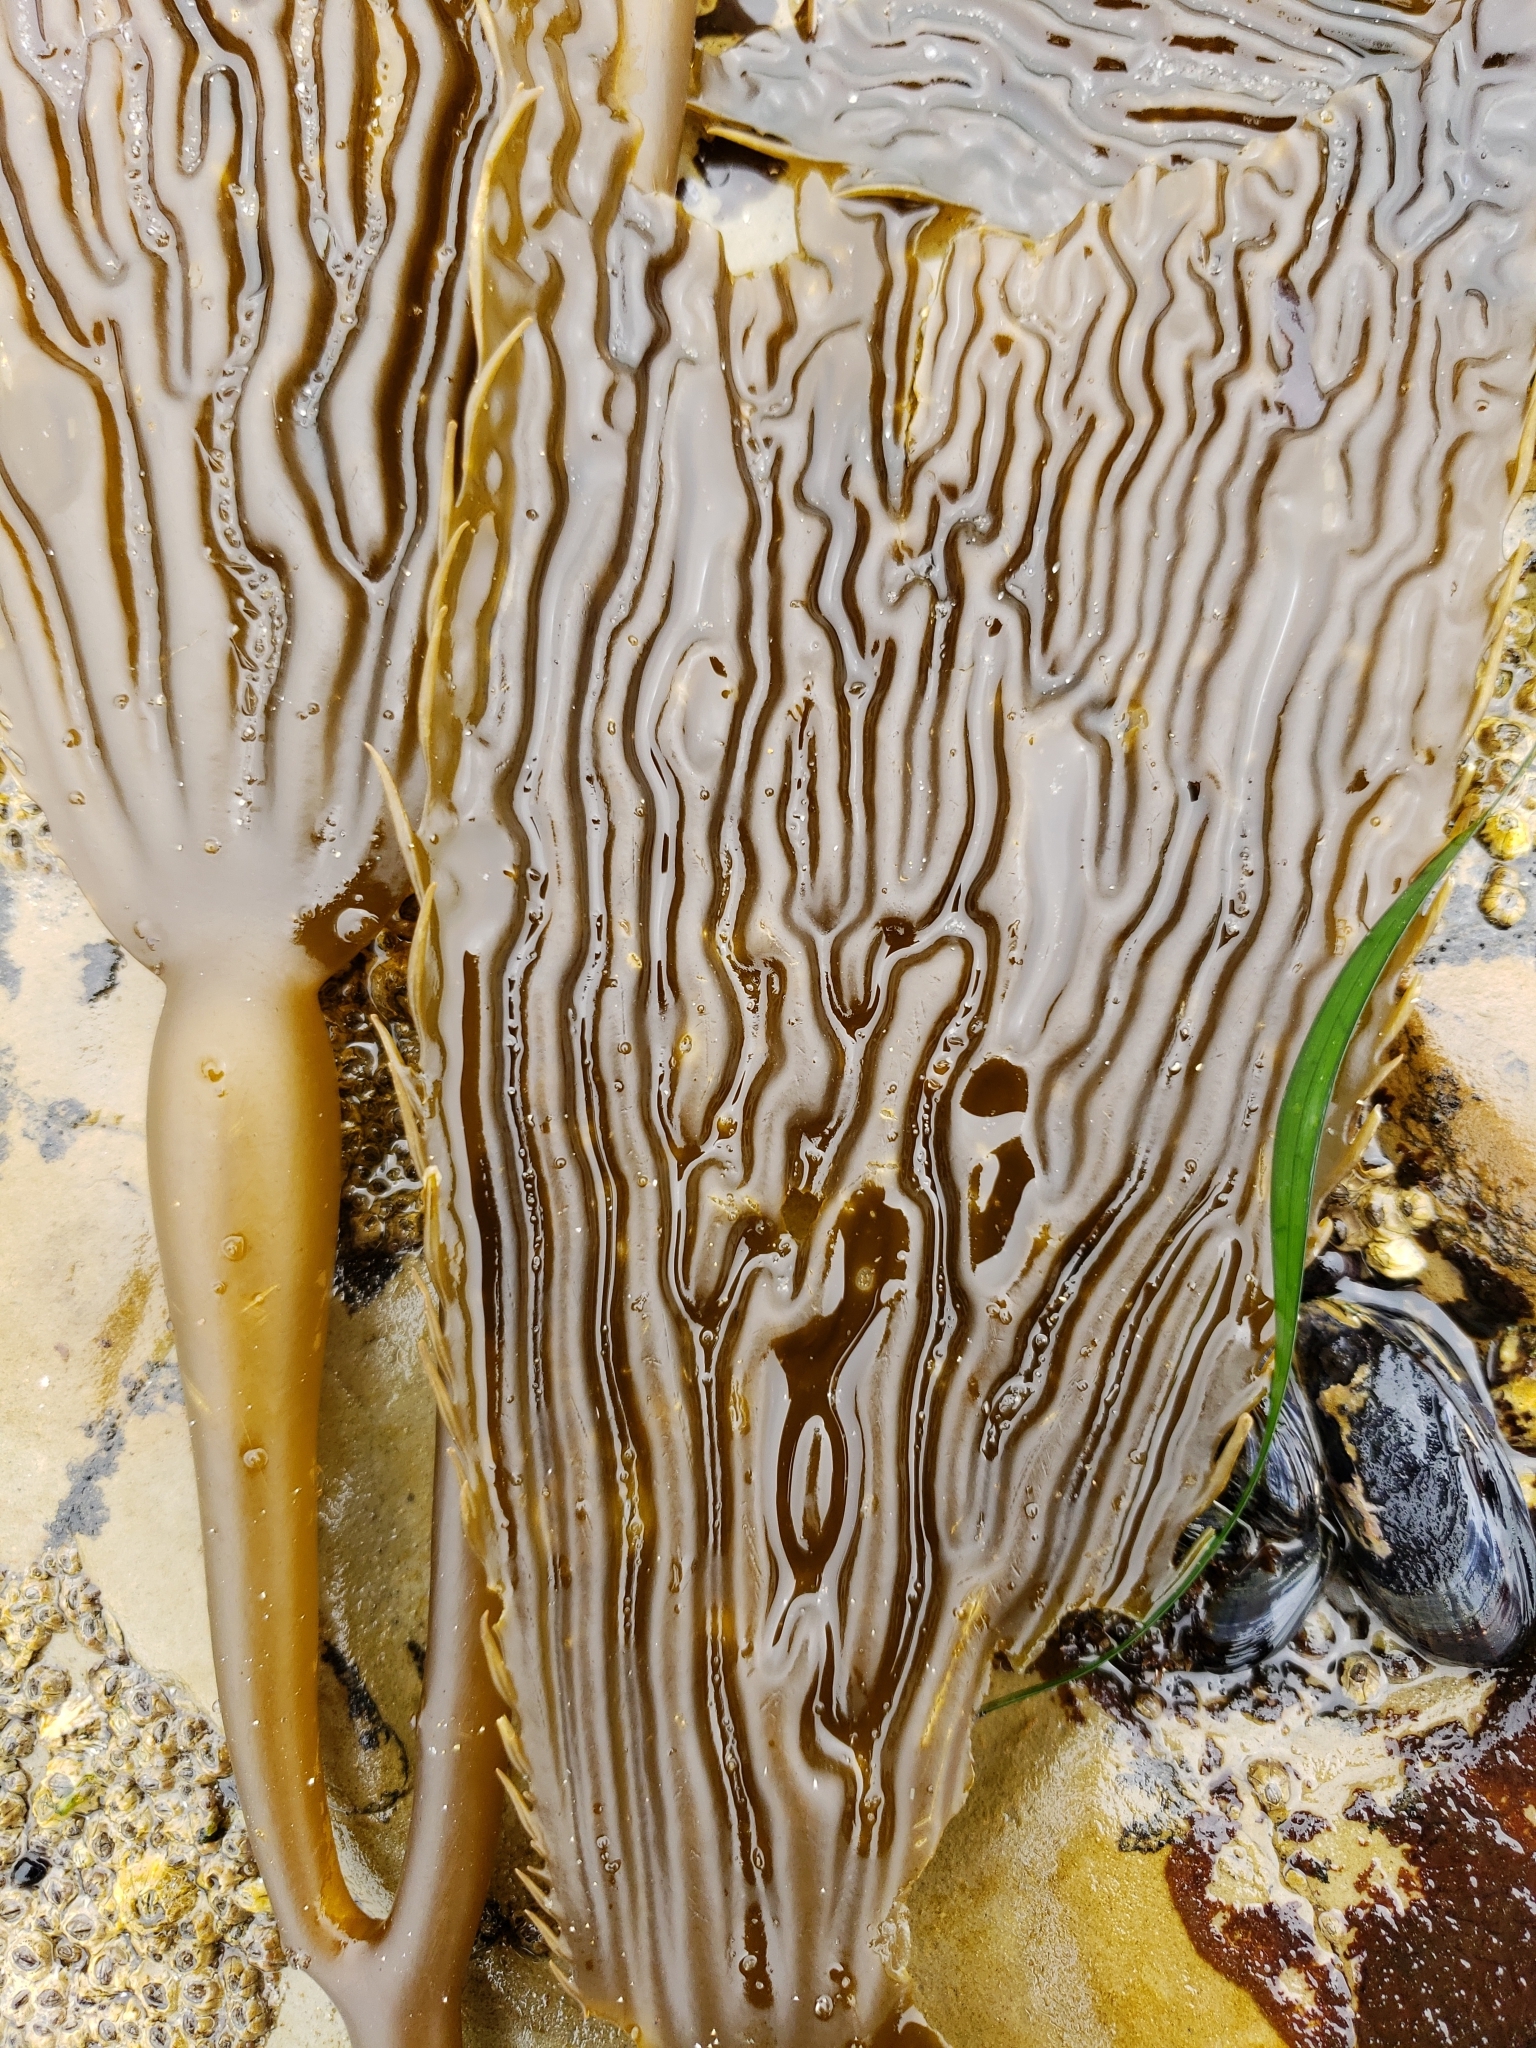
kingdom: Chromista
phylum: Ochrophyta
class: Phaeophyceae
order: Laminariales
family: Laminariaceae
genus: Macrocystis
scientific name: Macrocystis pyrifera
